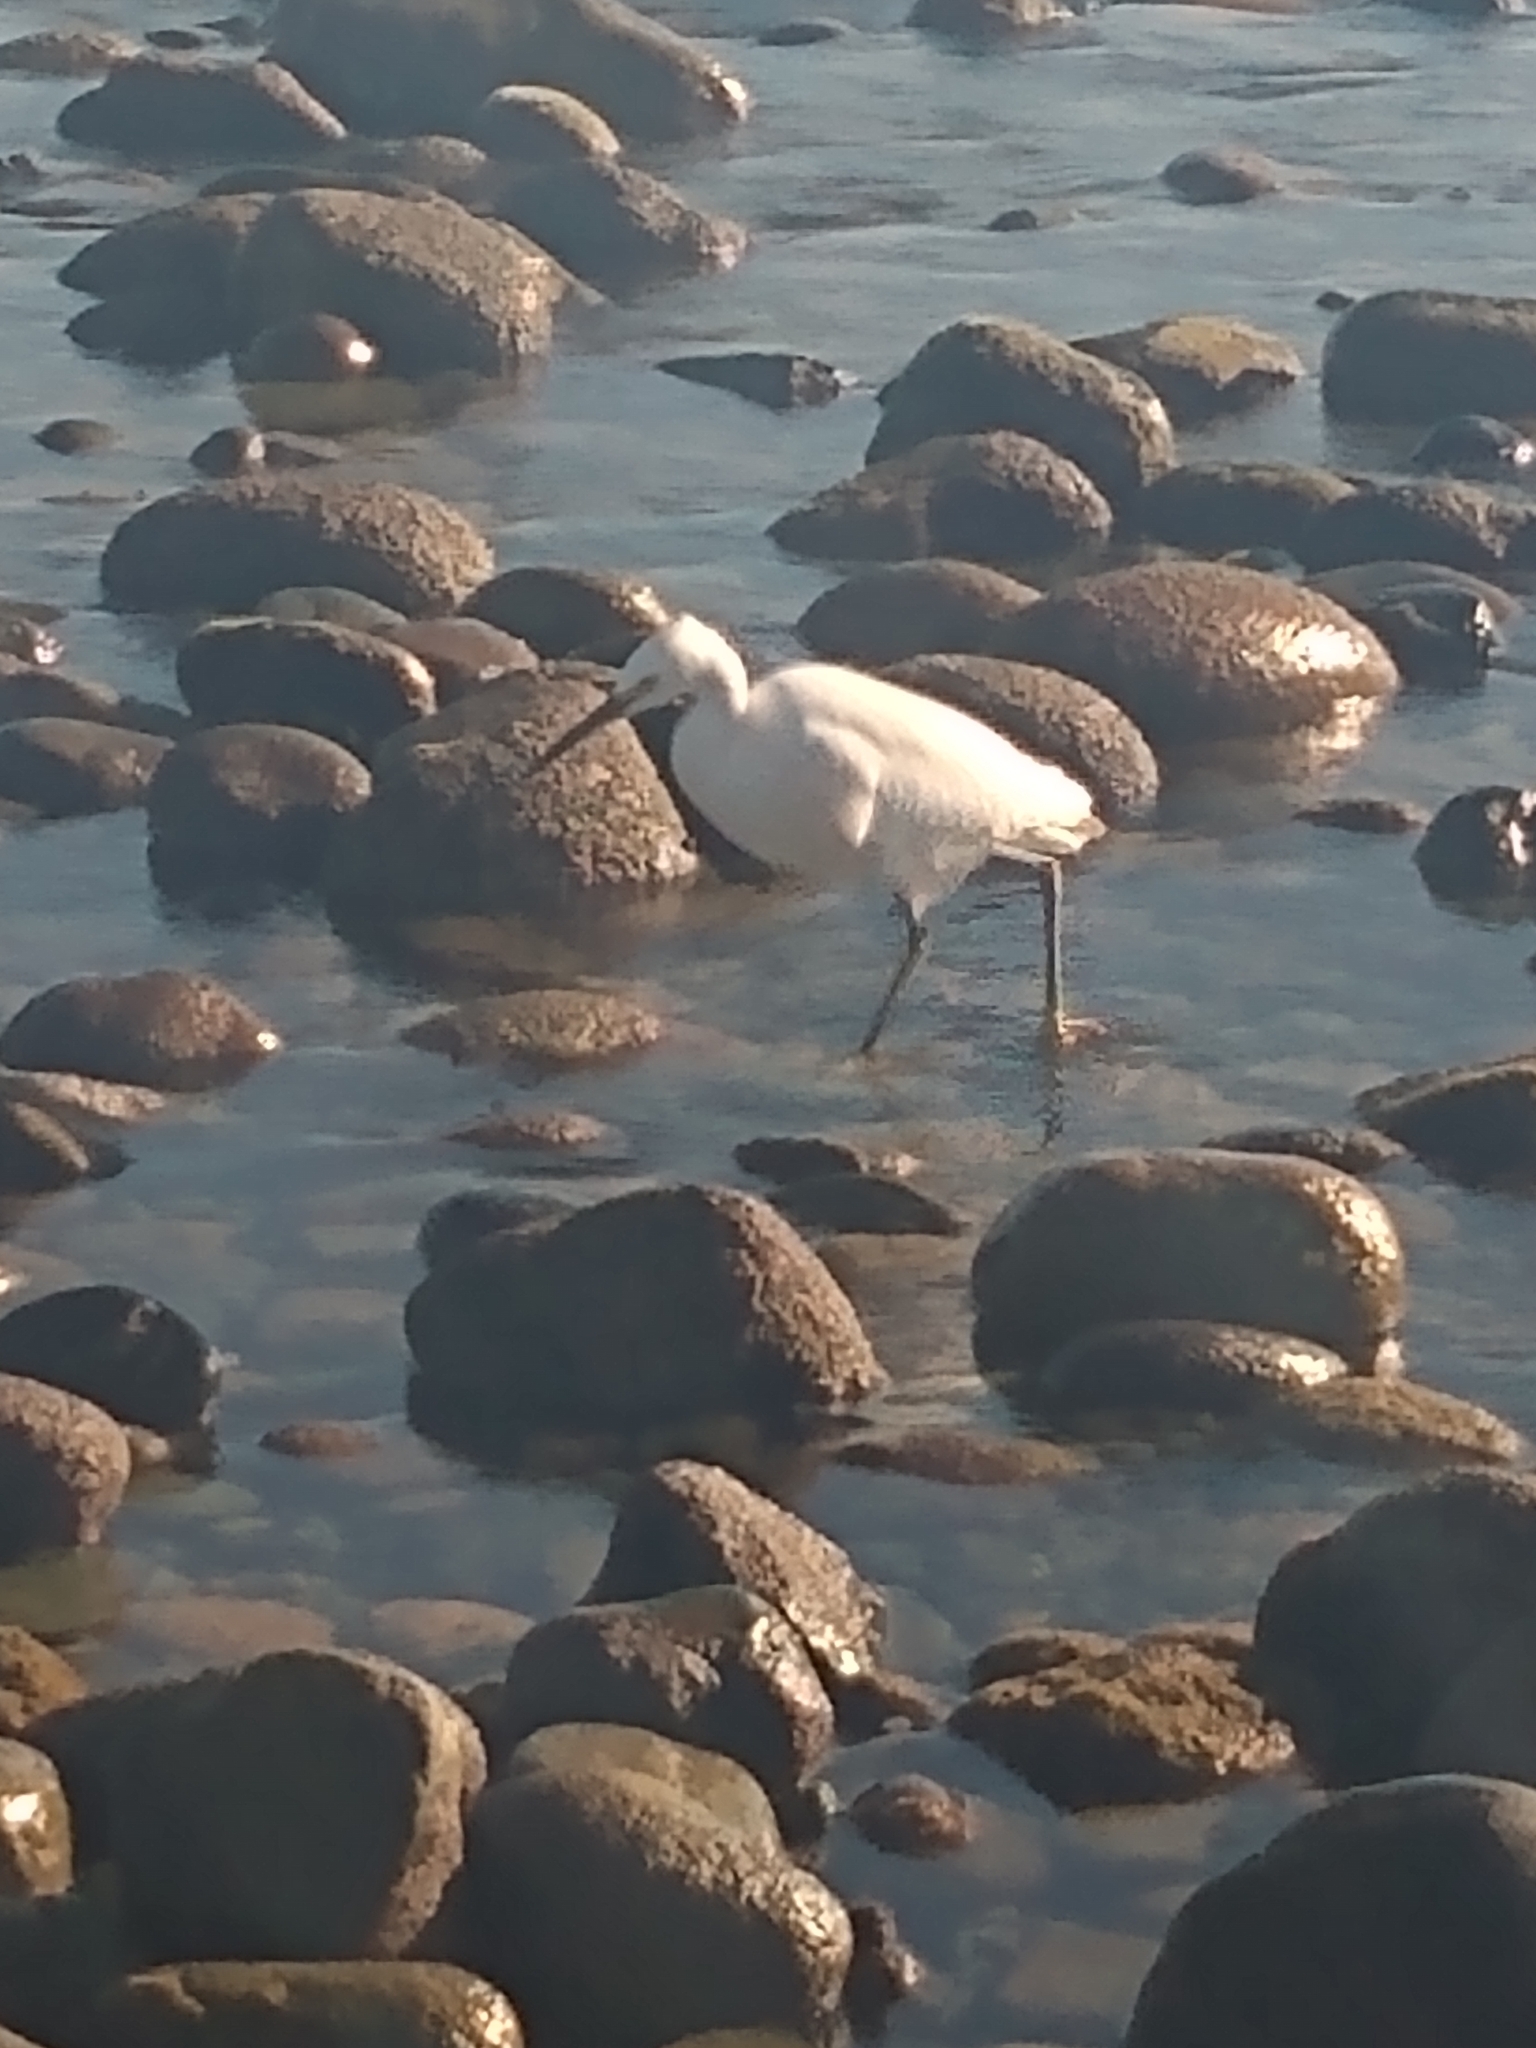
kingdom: Animalia
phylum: Chordata
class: Aves
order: Pelecaniformes
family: Ardeidae
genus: Egretta
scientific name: Egretta thula
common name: Snowy egret
